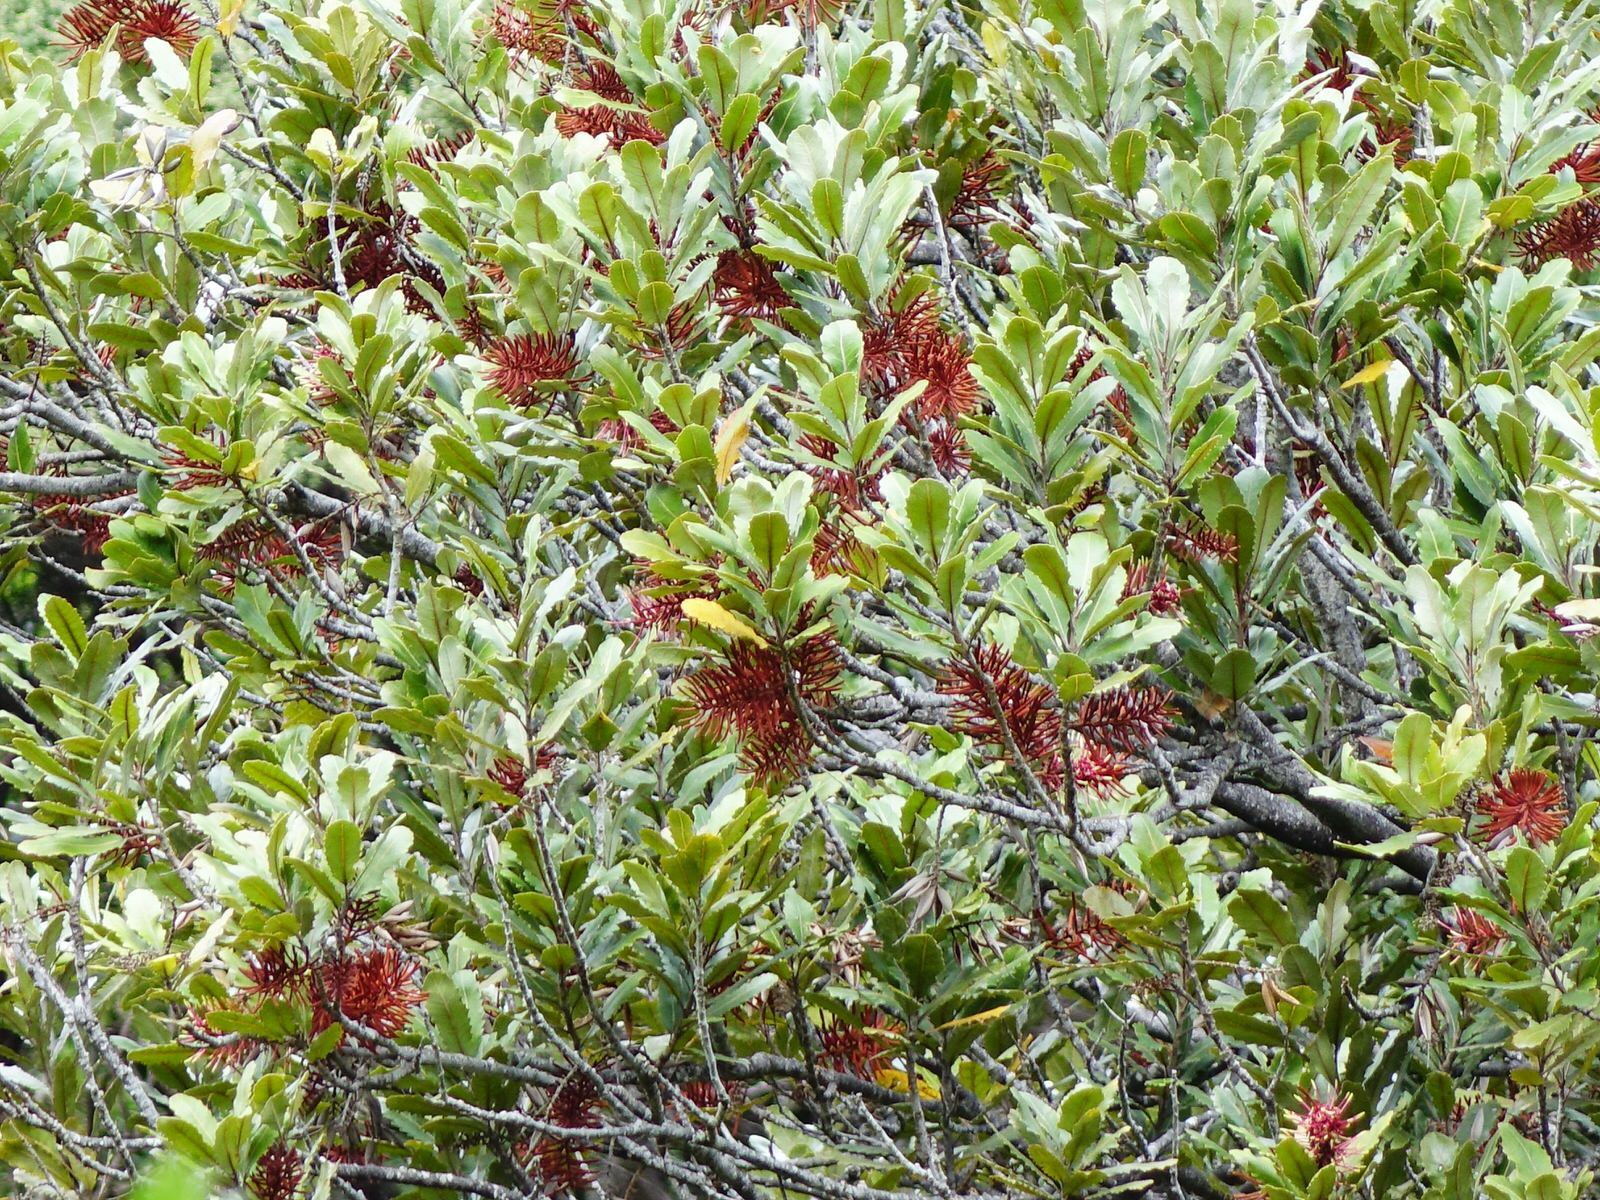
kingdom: Plantae
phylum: Tracheophyta
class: Magnoliopsida
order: Proteales
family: Proteaceae
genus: Knightia
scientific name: Knightia excelsa
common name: New zealand-honeysuckle
